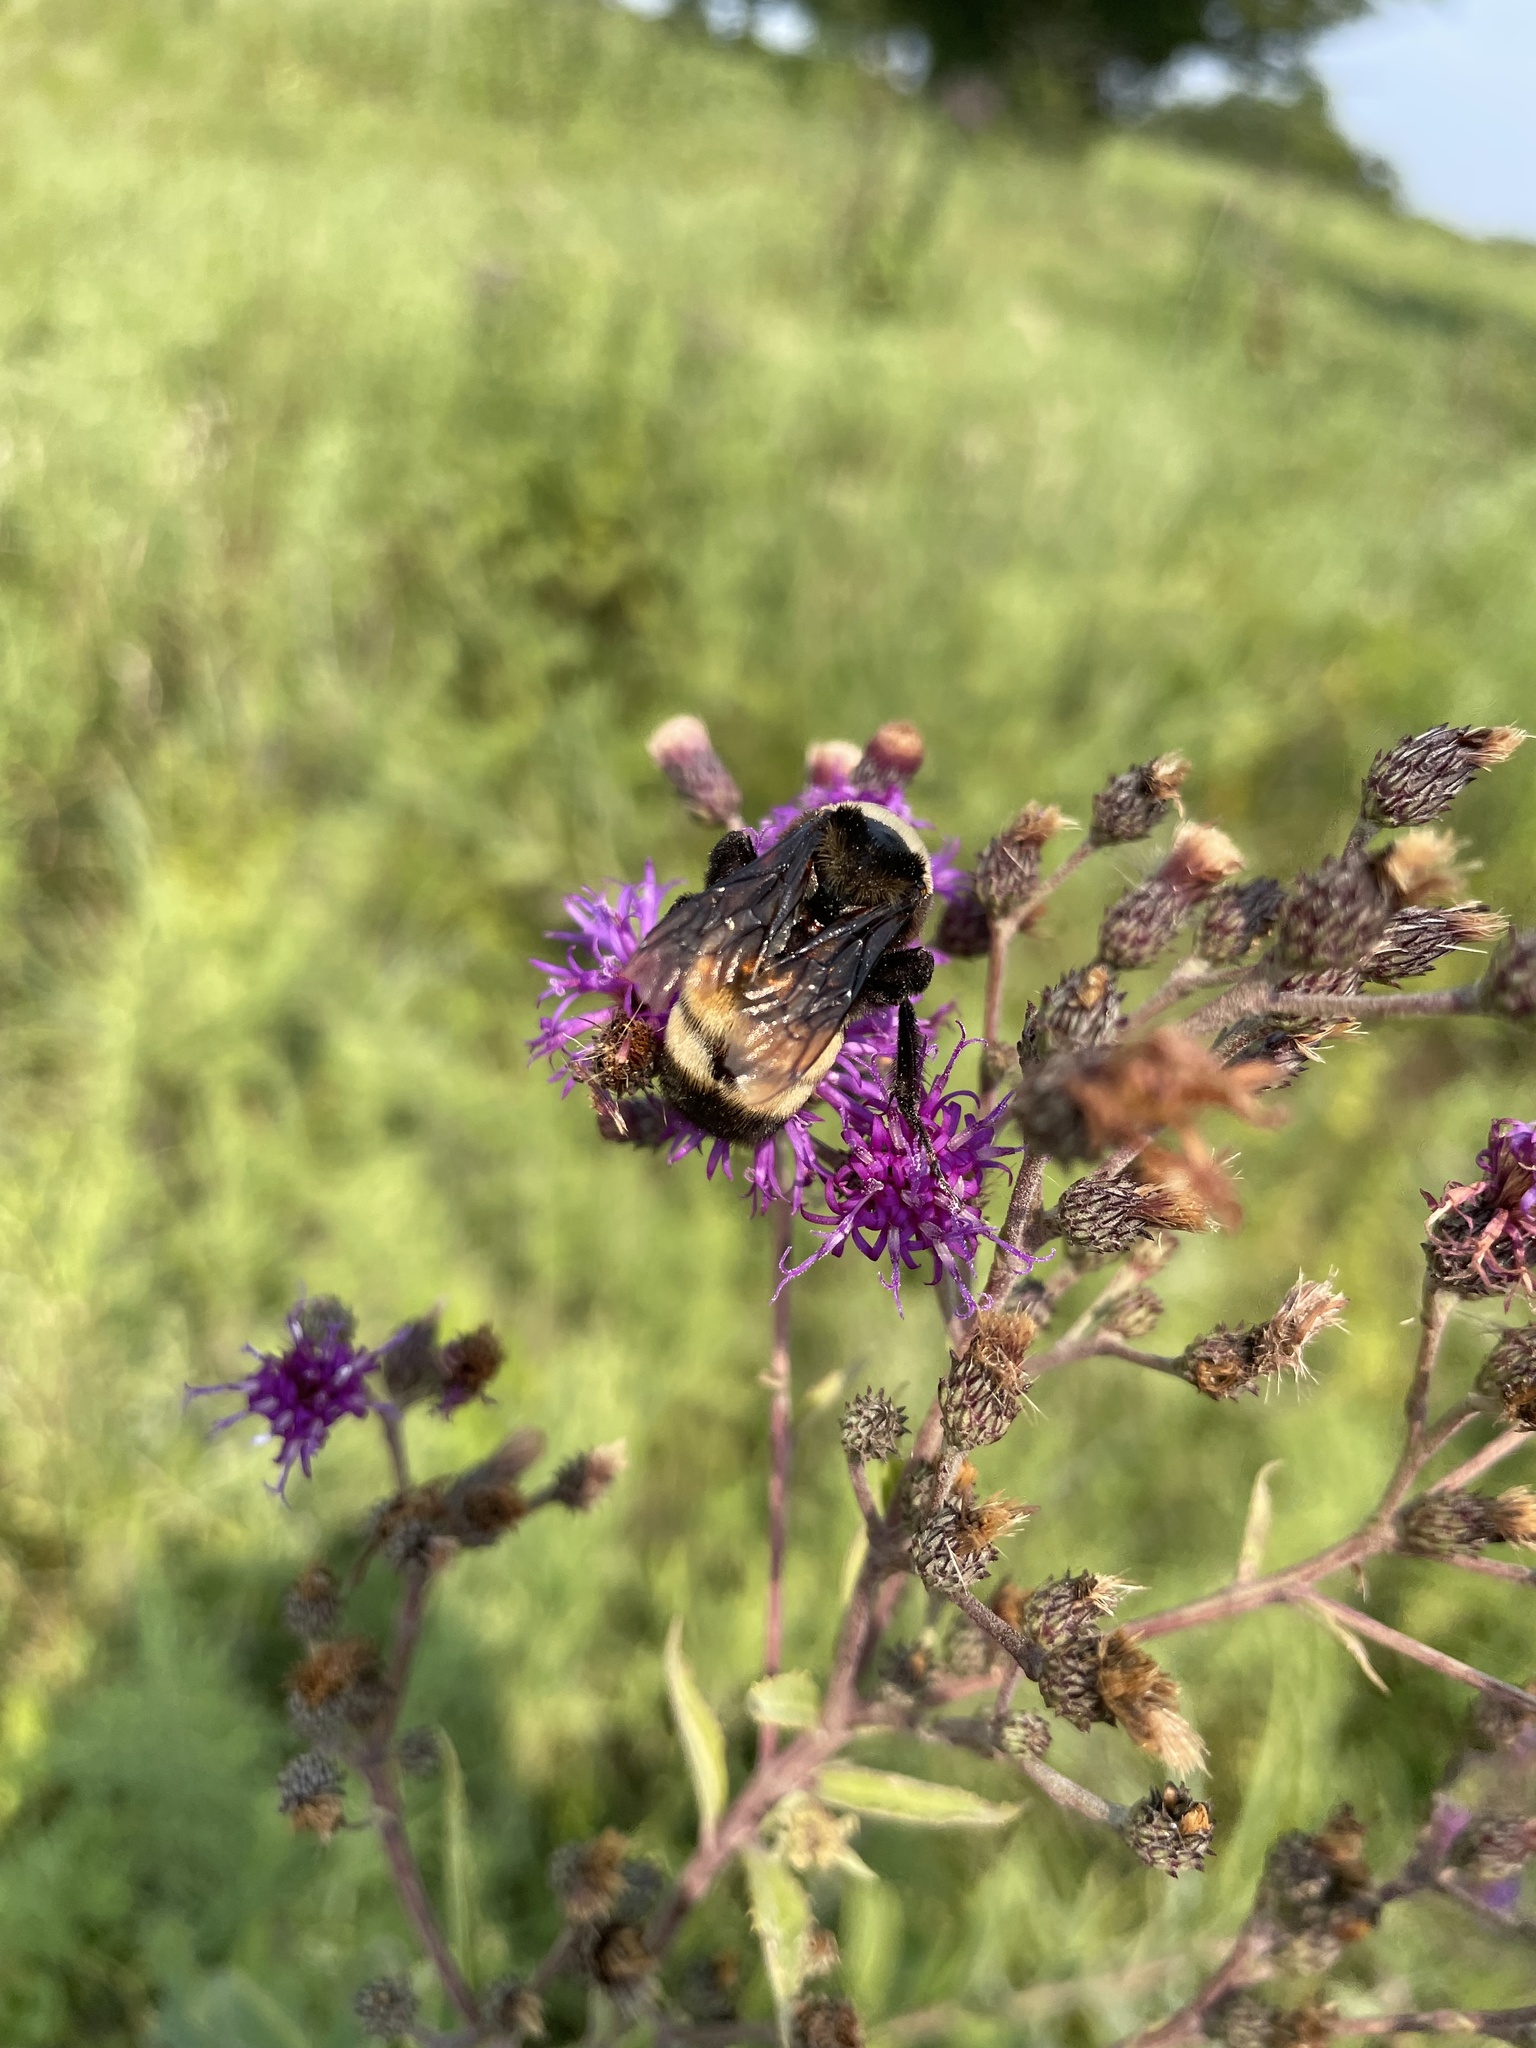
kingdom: Animalia
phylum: Arthropoda
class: Insecta
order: Hymenoptera
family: Apidae
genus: Bombus
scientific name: Bombus auricomus
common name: Black and gold bumble bee
